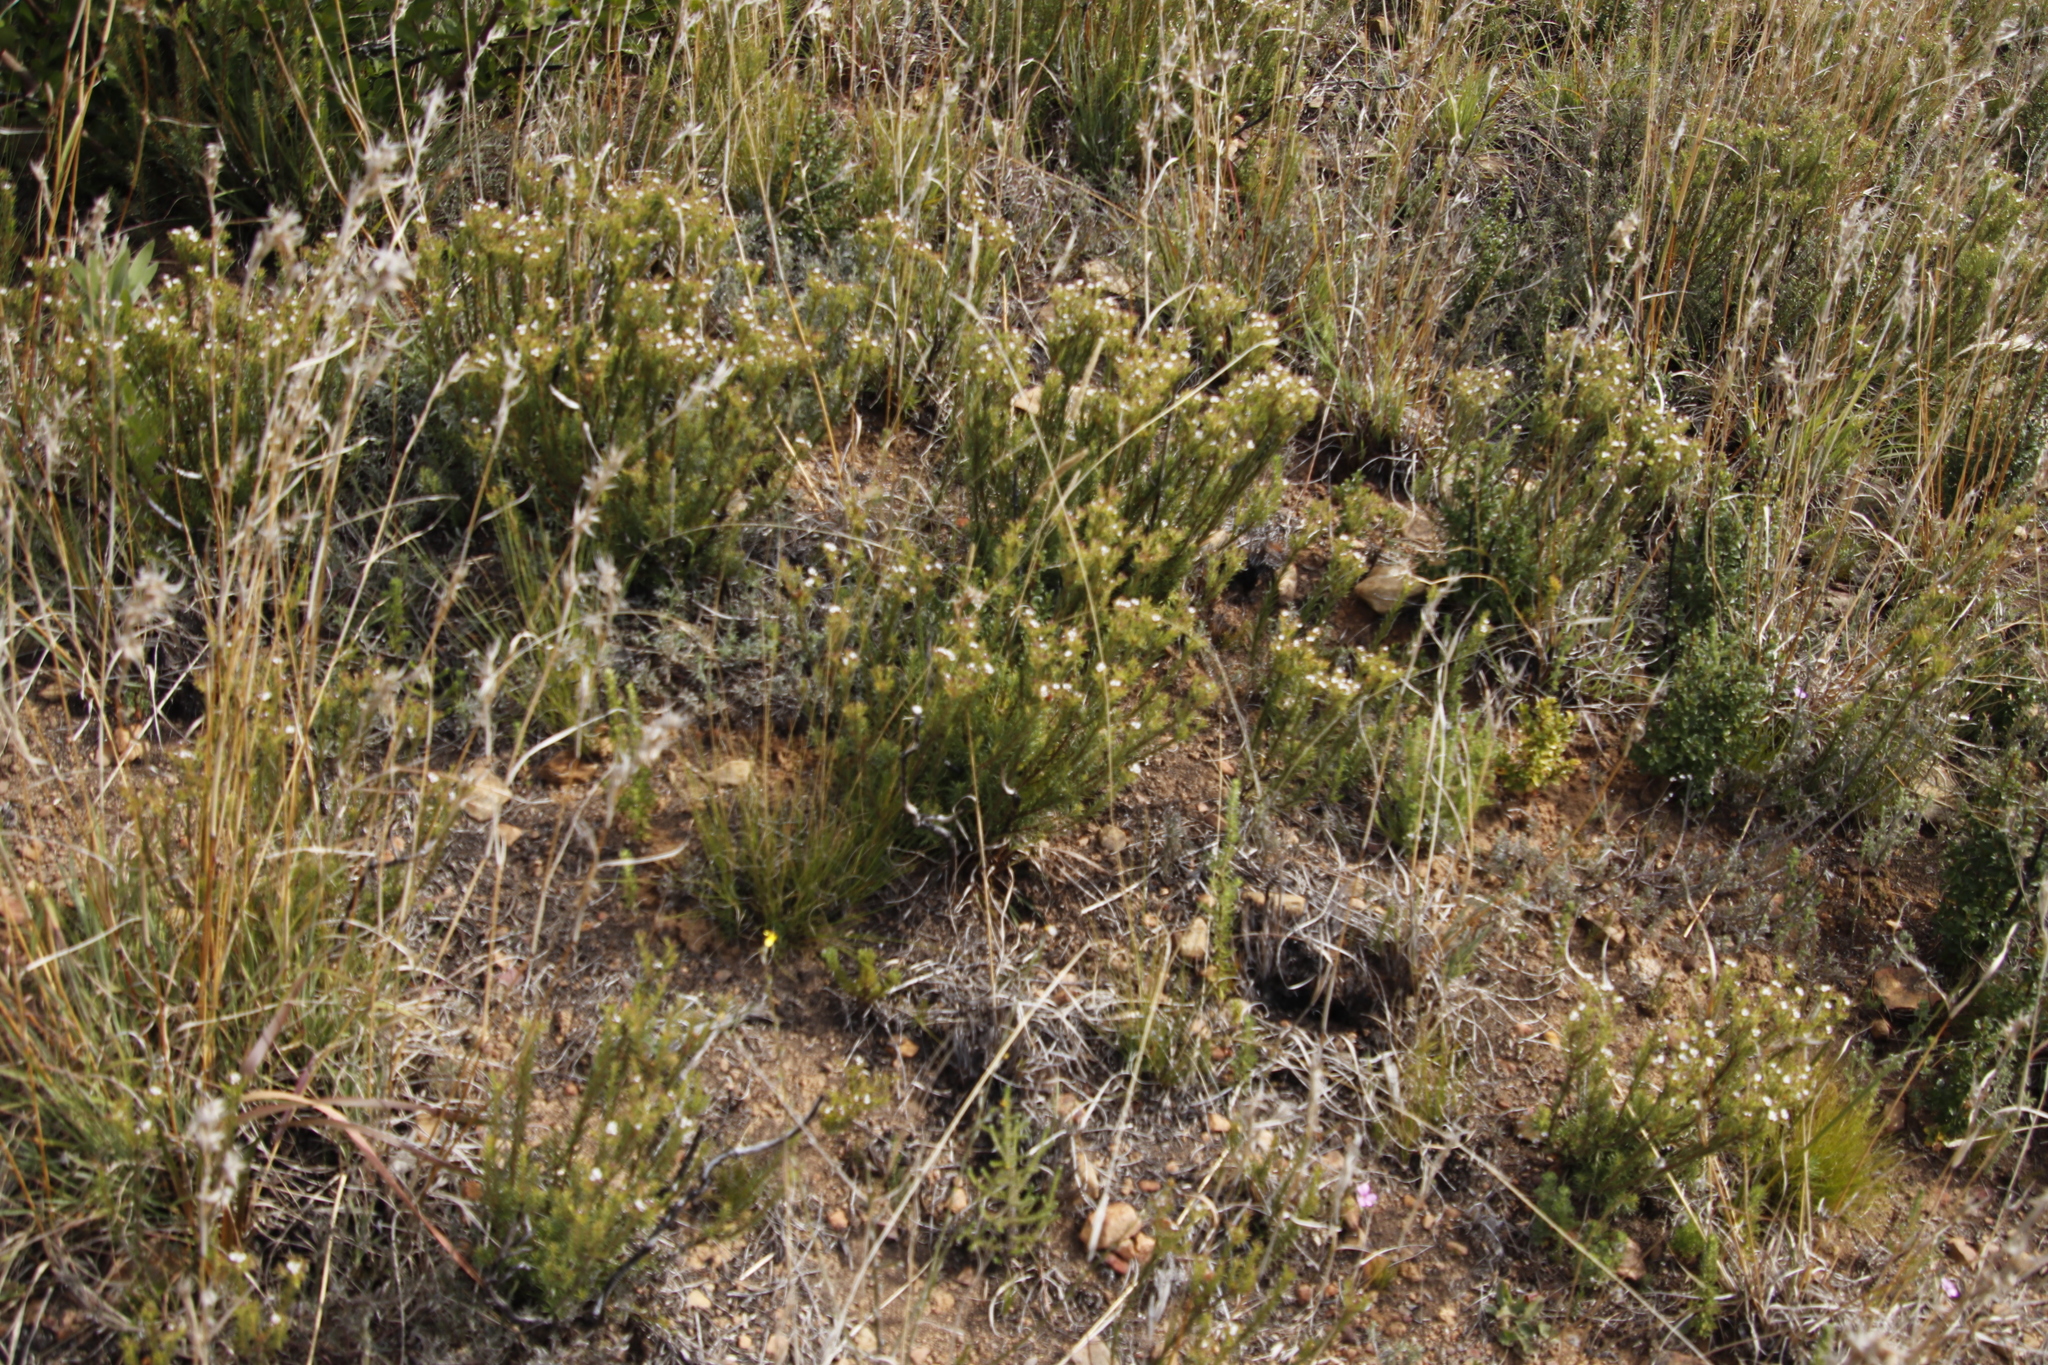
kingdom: Plantae
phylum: Tracheophyta
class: Magnoliopsida
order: Sapindales
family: Rutaceae
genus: Diosma
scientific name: Diosma hirsuta
